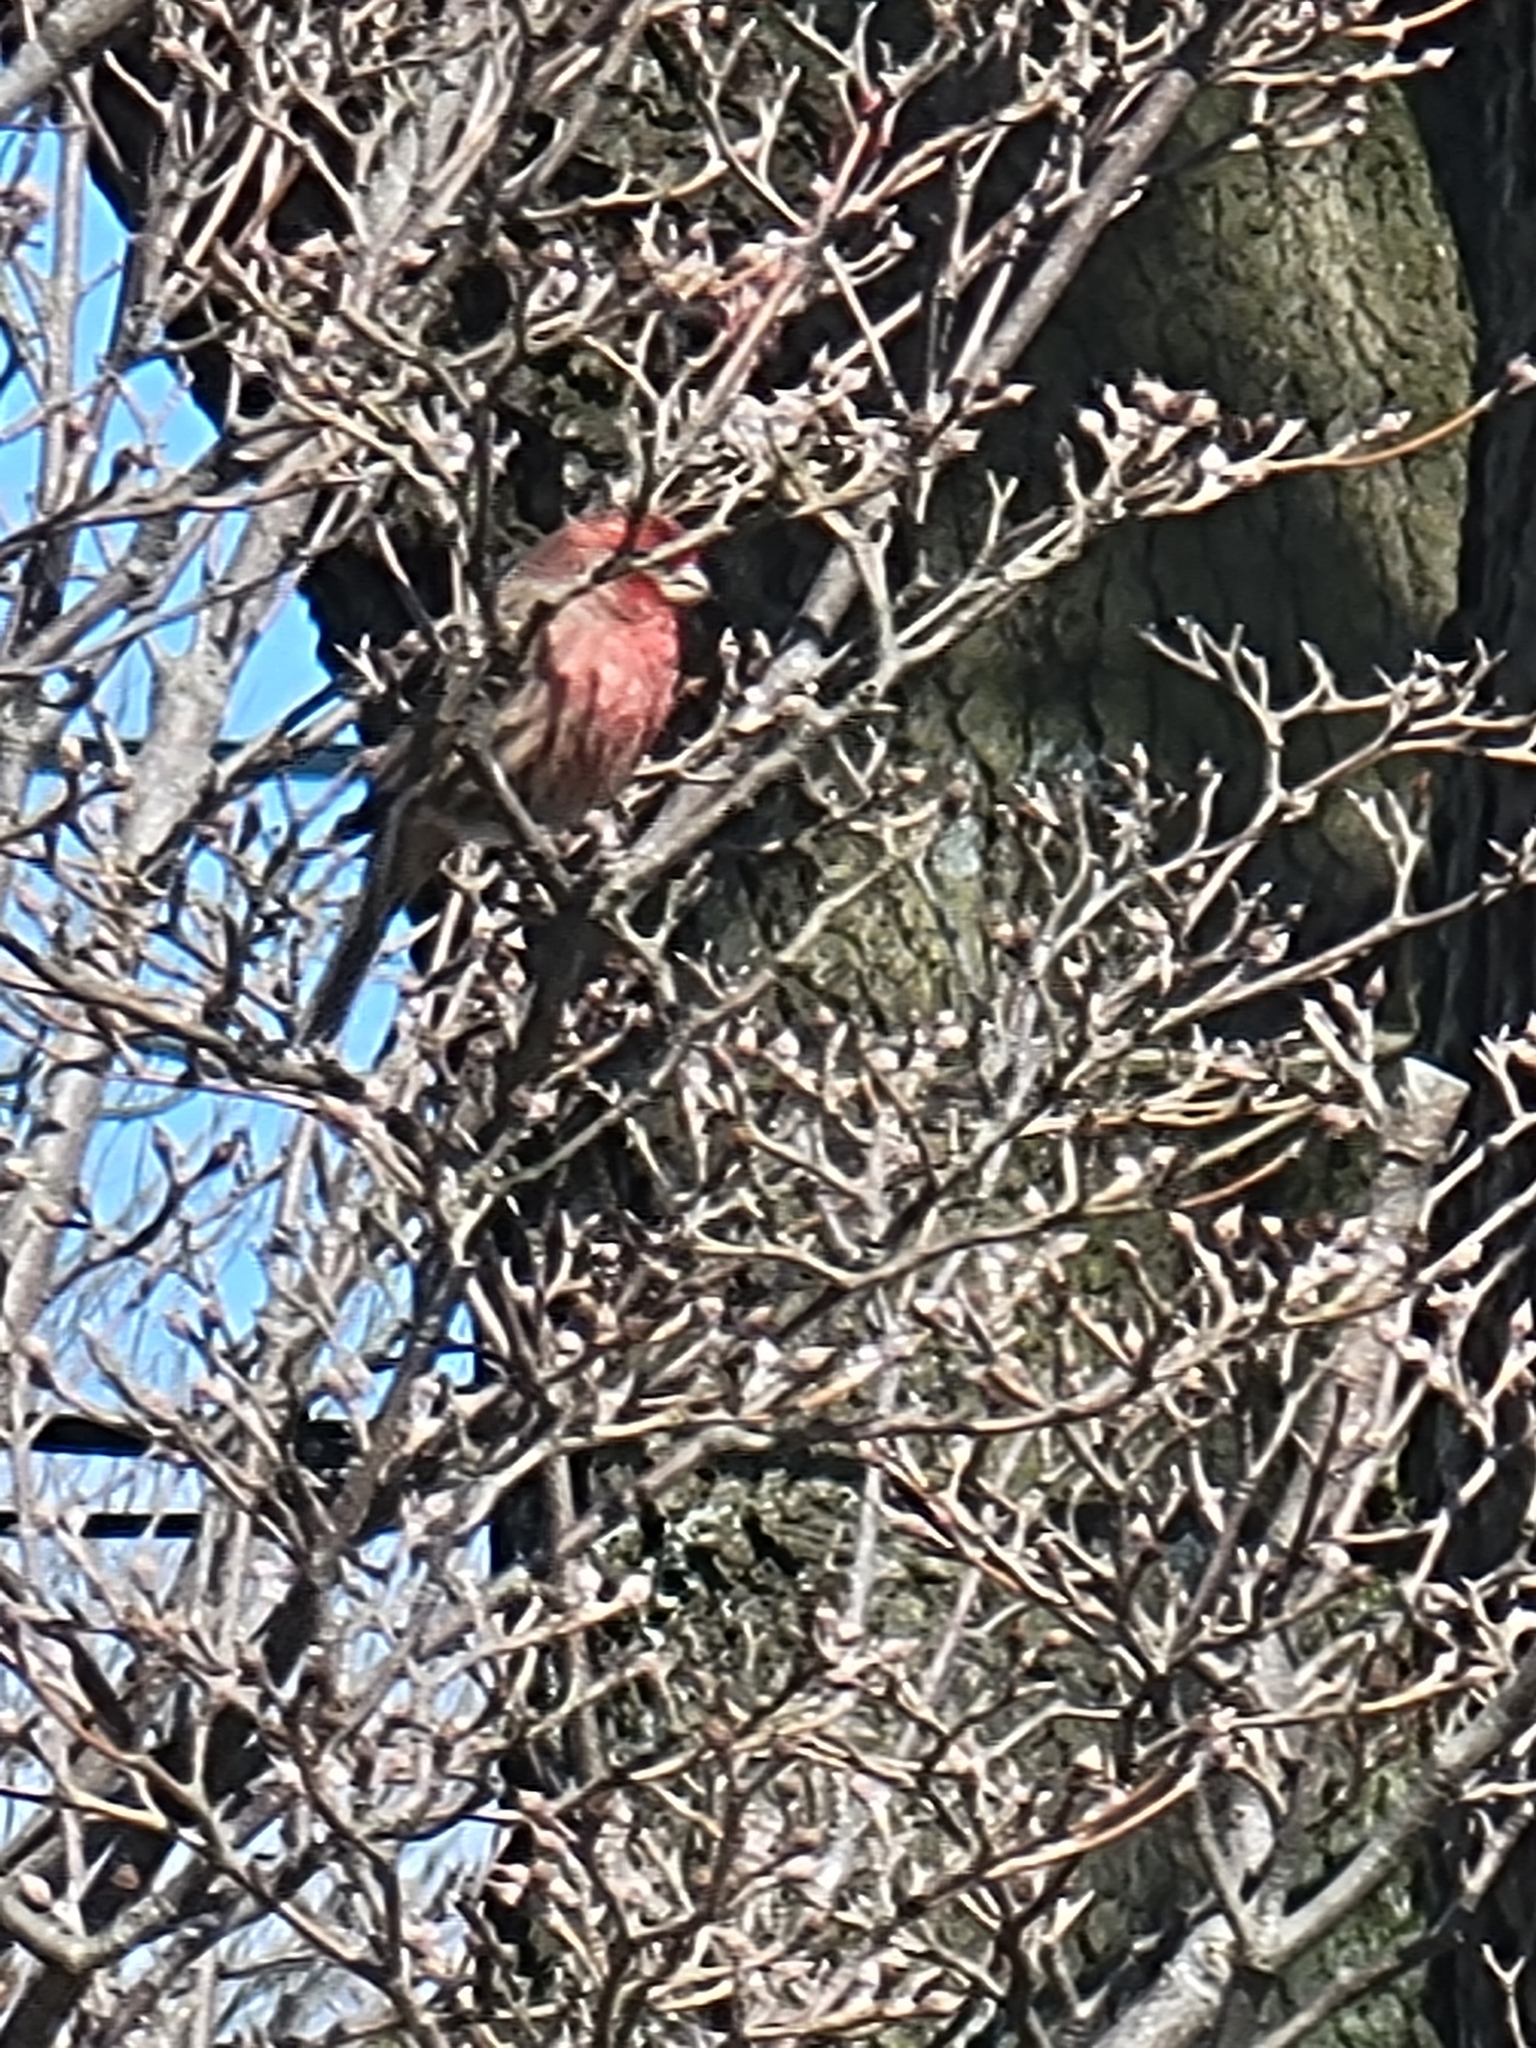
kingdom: Animalia
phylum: Chordata
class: Aves
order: Passeriformes
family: Fringillidae
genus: Haemorhous
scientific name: Haemorhous mexicanus
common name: House finch
